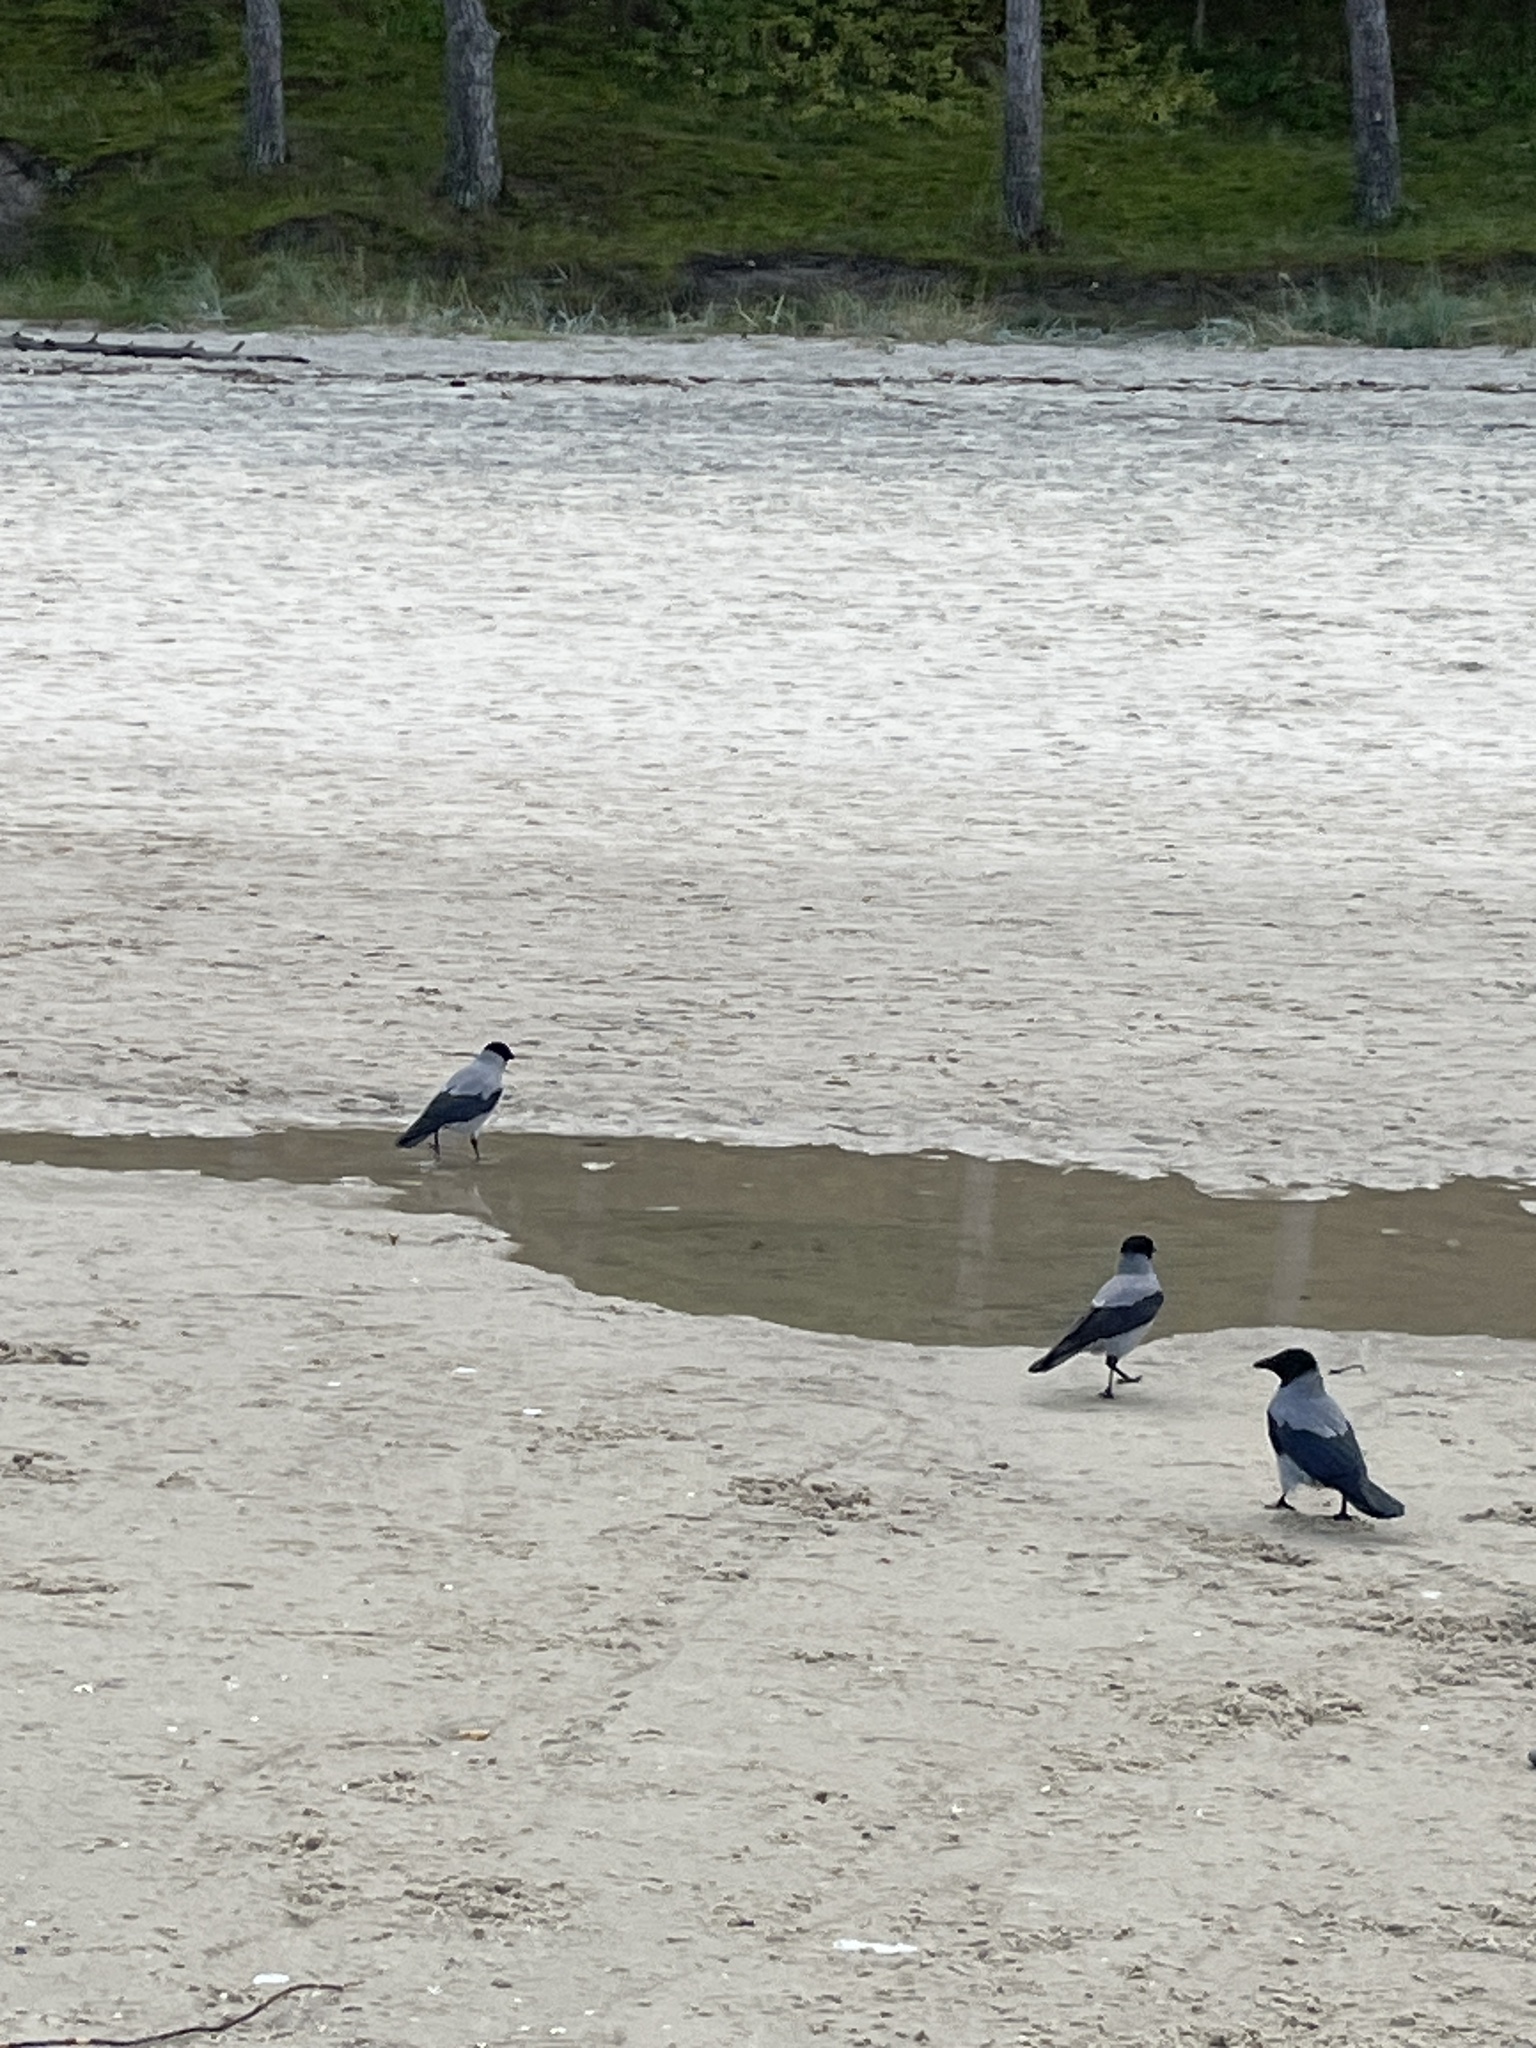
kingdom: Animalia
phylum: Chordata
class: Aves
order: Passeriformes
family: Corvidae
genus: Corvus
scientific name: Corvus cornix
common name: Hooded crow
